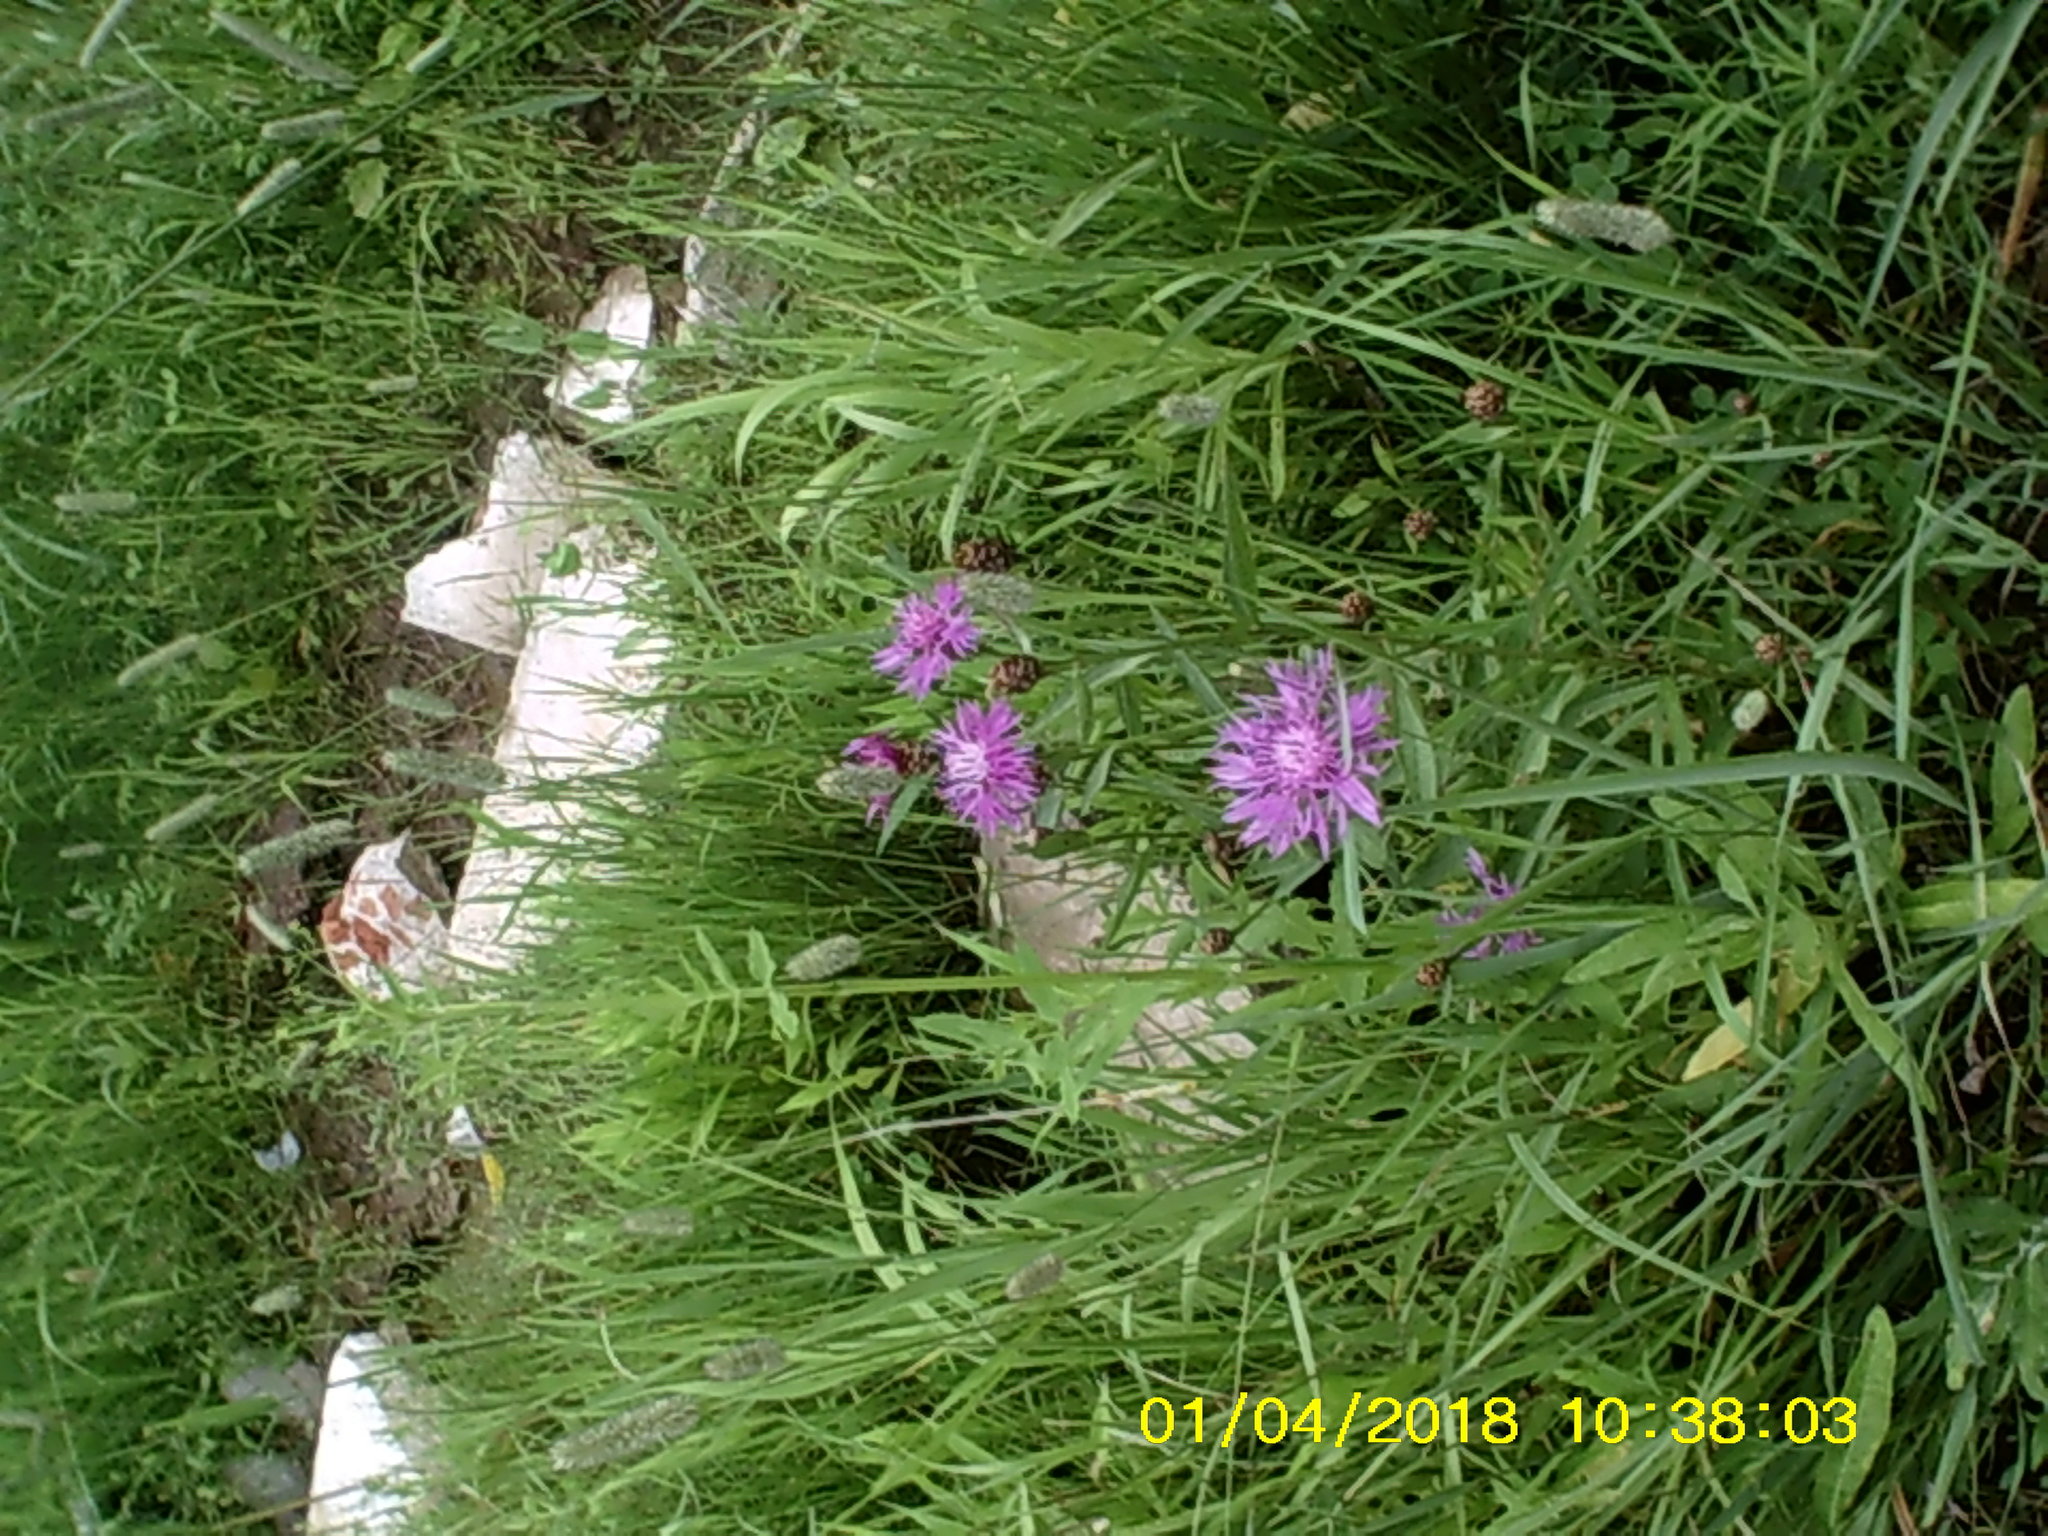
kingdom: Plantae
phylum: Tracheophyta
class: Magnoliopsida
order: Asterales
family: Asteraceae
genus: Centaurea
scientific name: Centaurea jacea
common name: Brown knapweed
